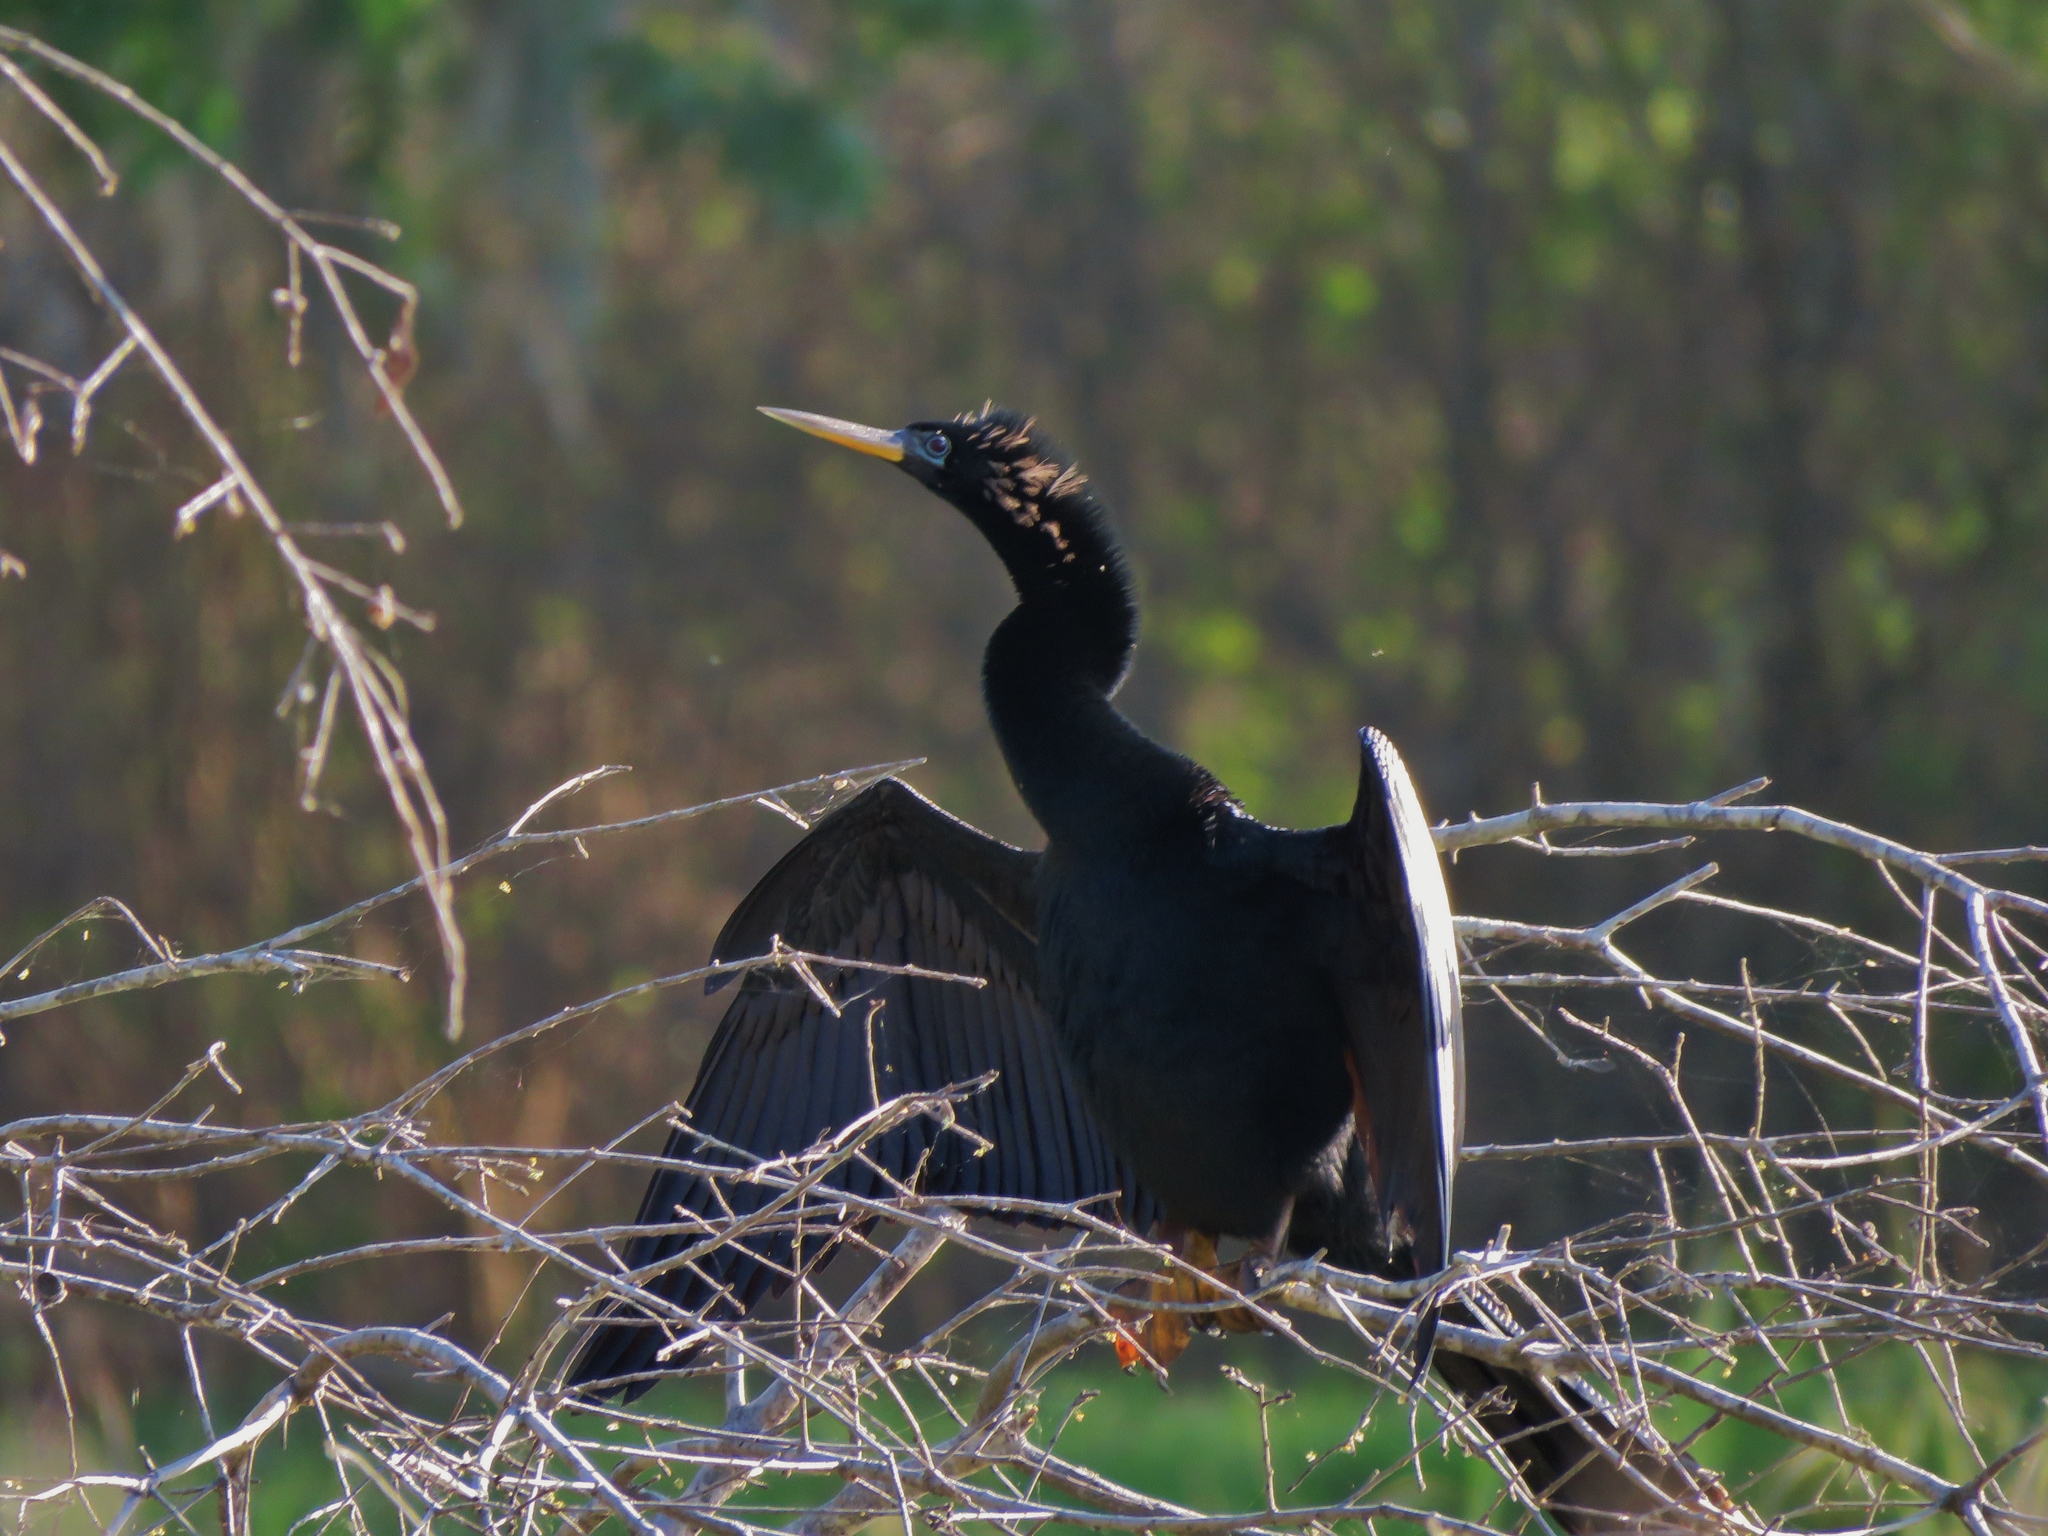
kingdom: Animalia
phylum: Chordata
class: Aves
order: Suliformes
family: Anhingidae
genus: Anhinga
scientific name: Anhinga anhinga
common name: Anhinga
